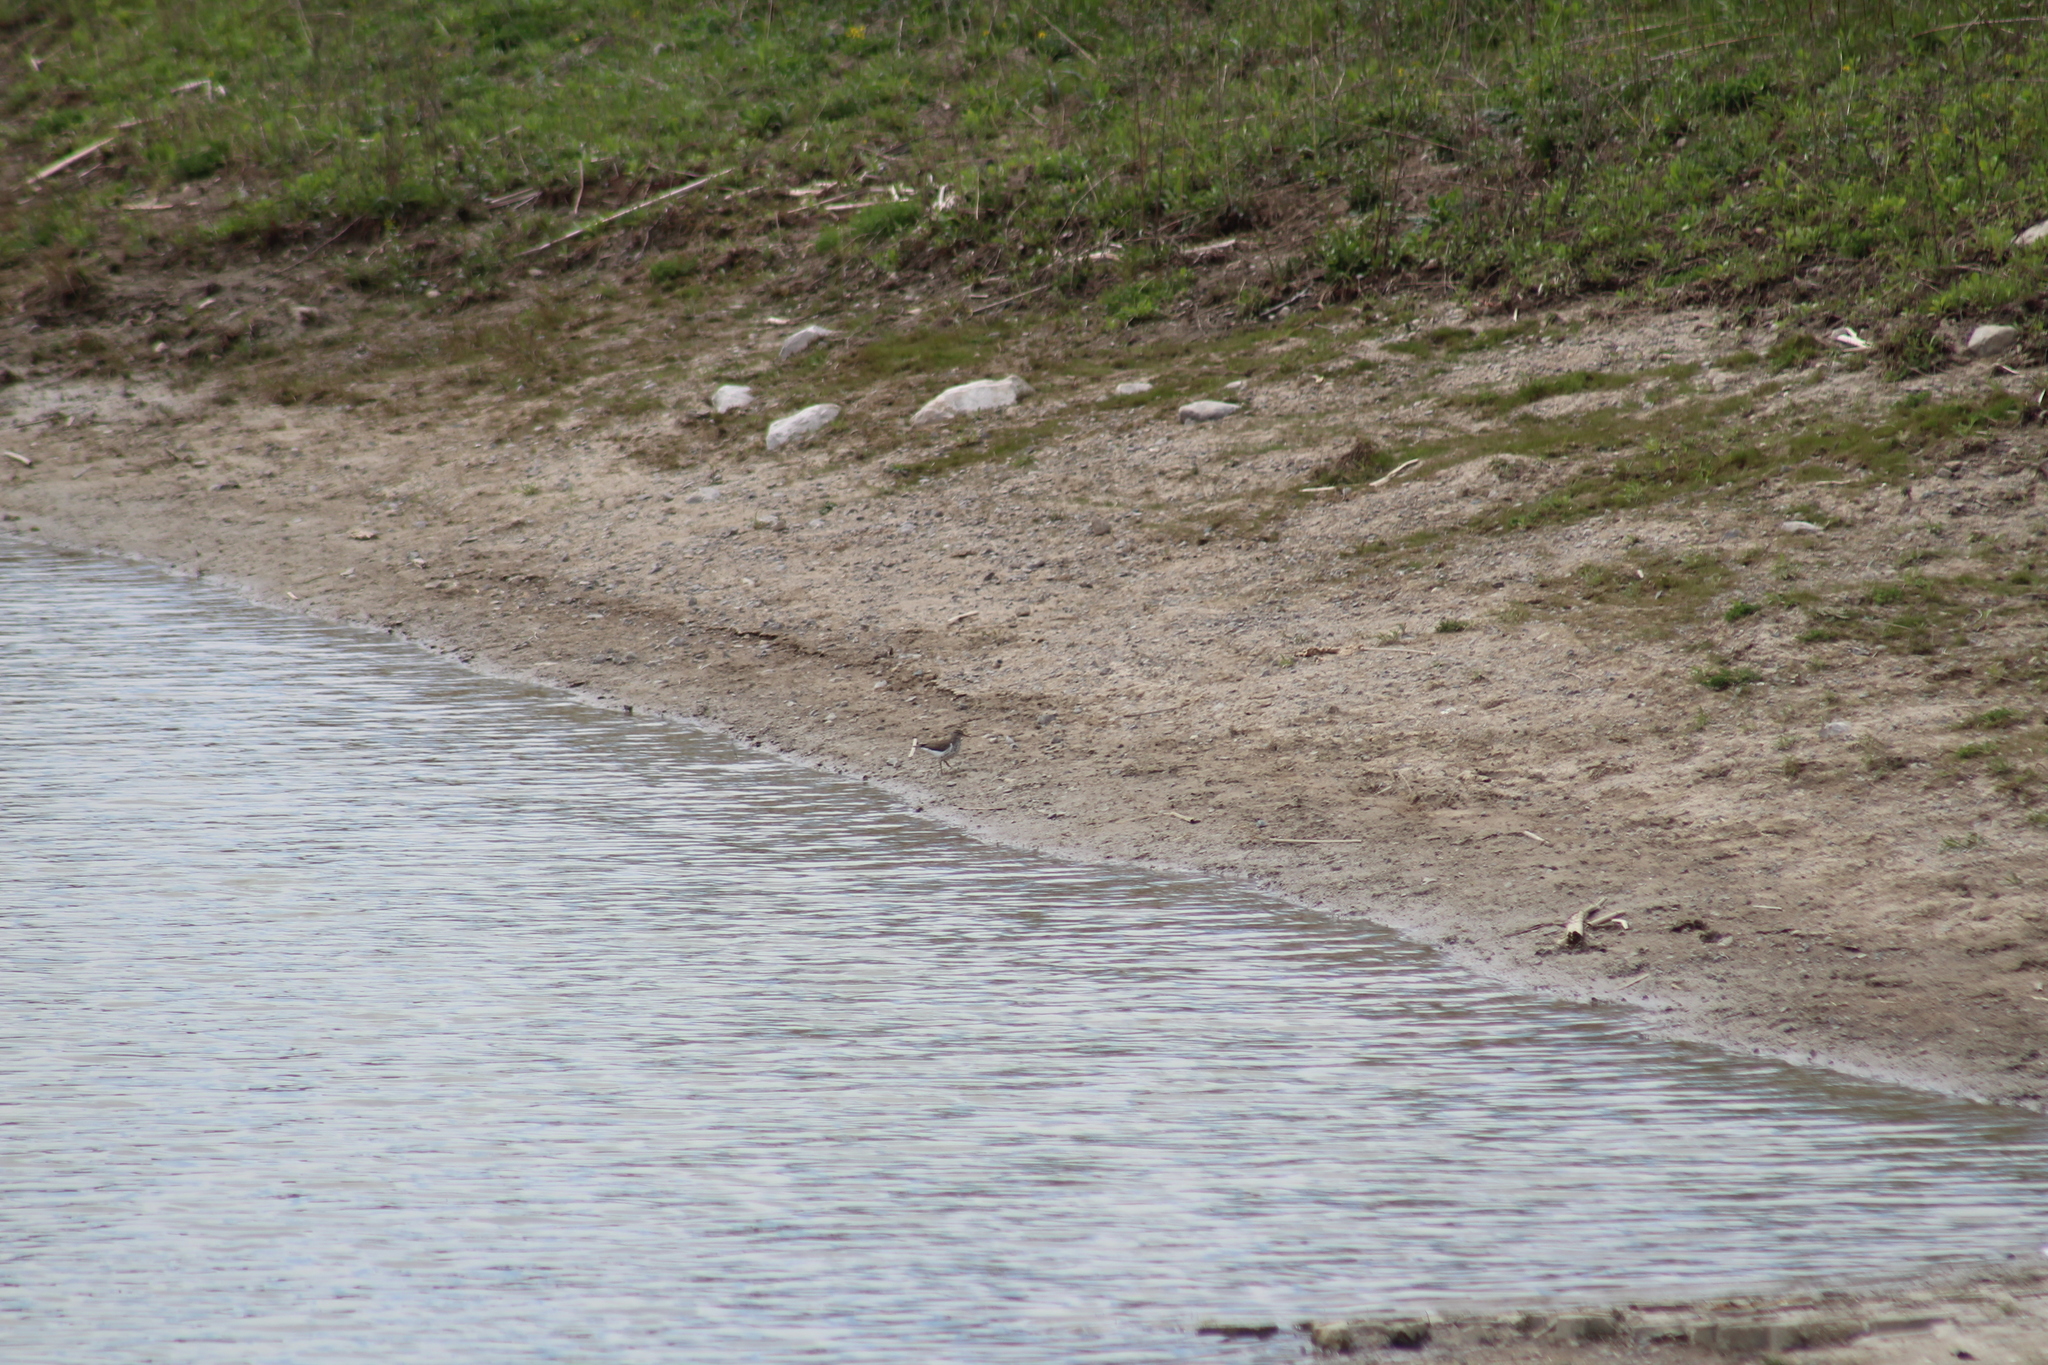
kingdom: Animalia
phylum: Chordata
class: Aves
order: Charadriiformes
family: Scolopacidae
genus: Actitis
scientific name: Actitis macularius
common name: Spotted sandpiper
